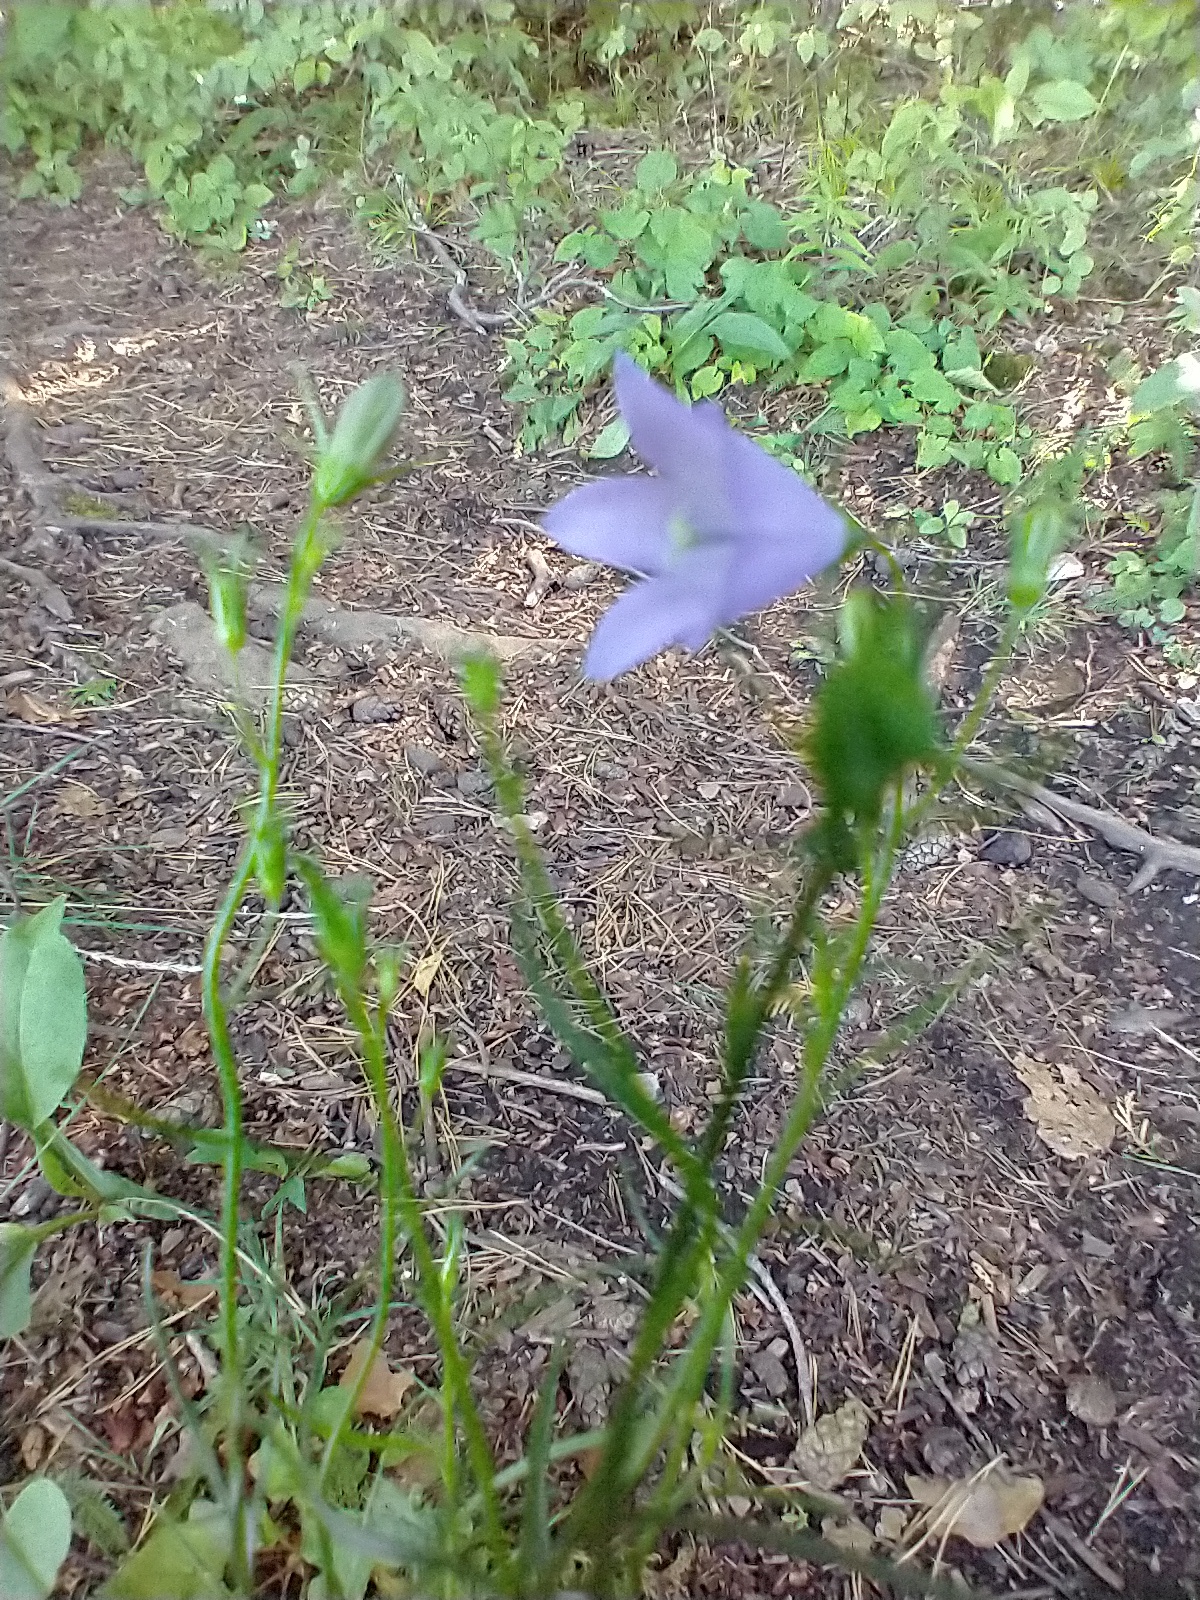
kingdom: Plantae
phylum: Tracheophyta
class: Magnoliopsida
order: Asterales
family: Campanulaceae
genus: Campanula
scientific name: Campanula intercedens
